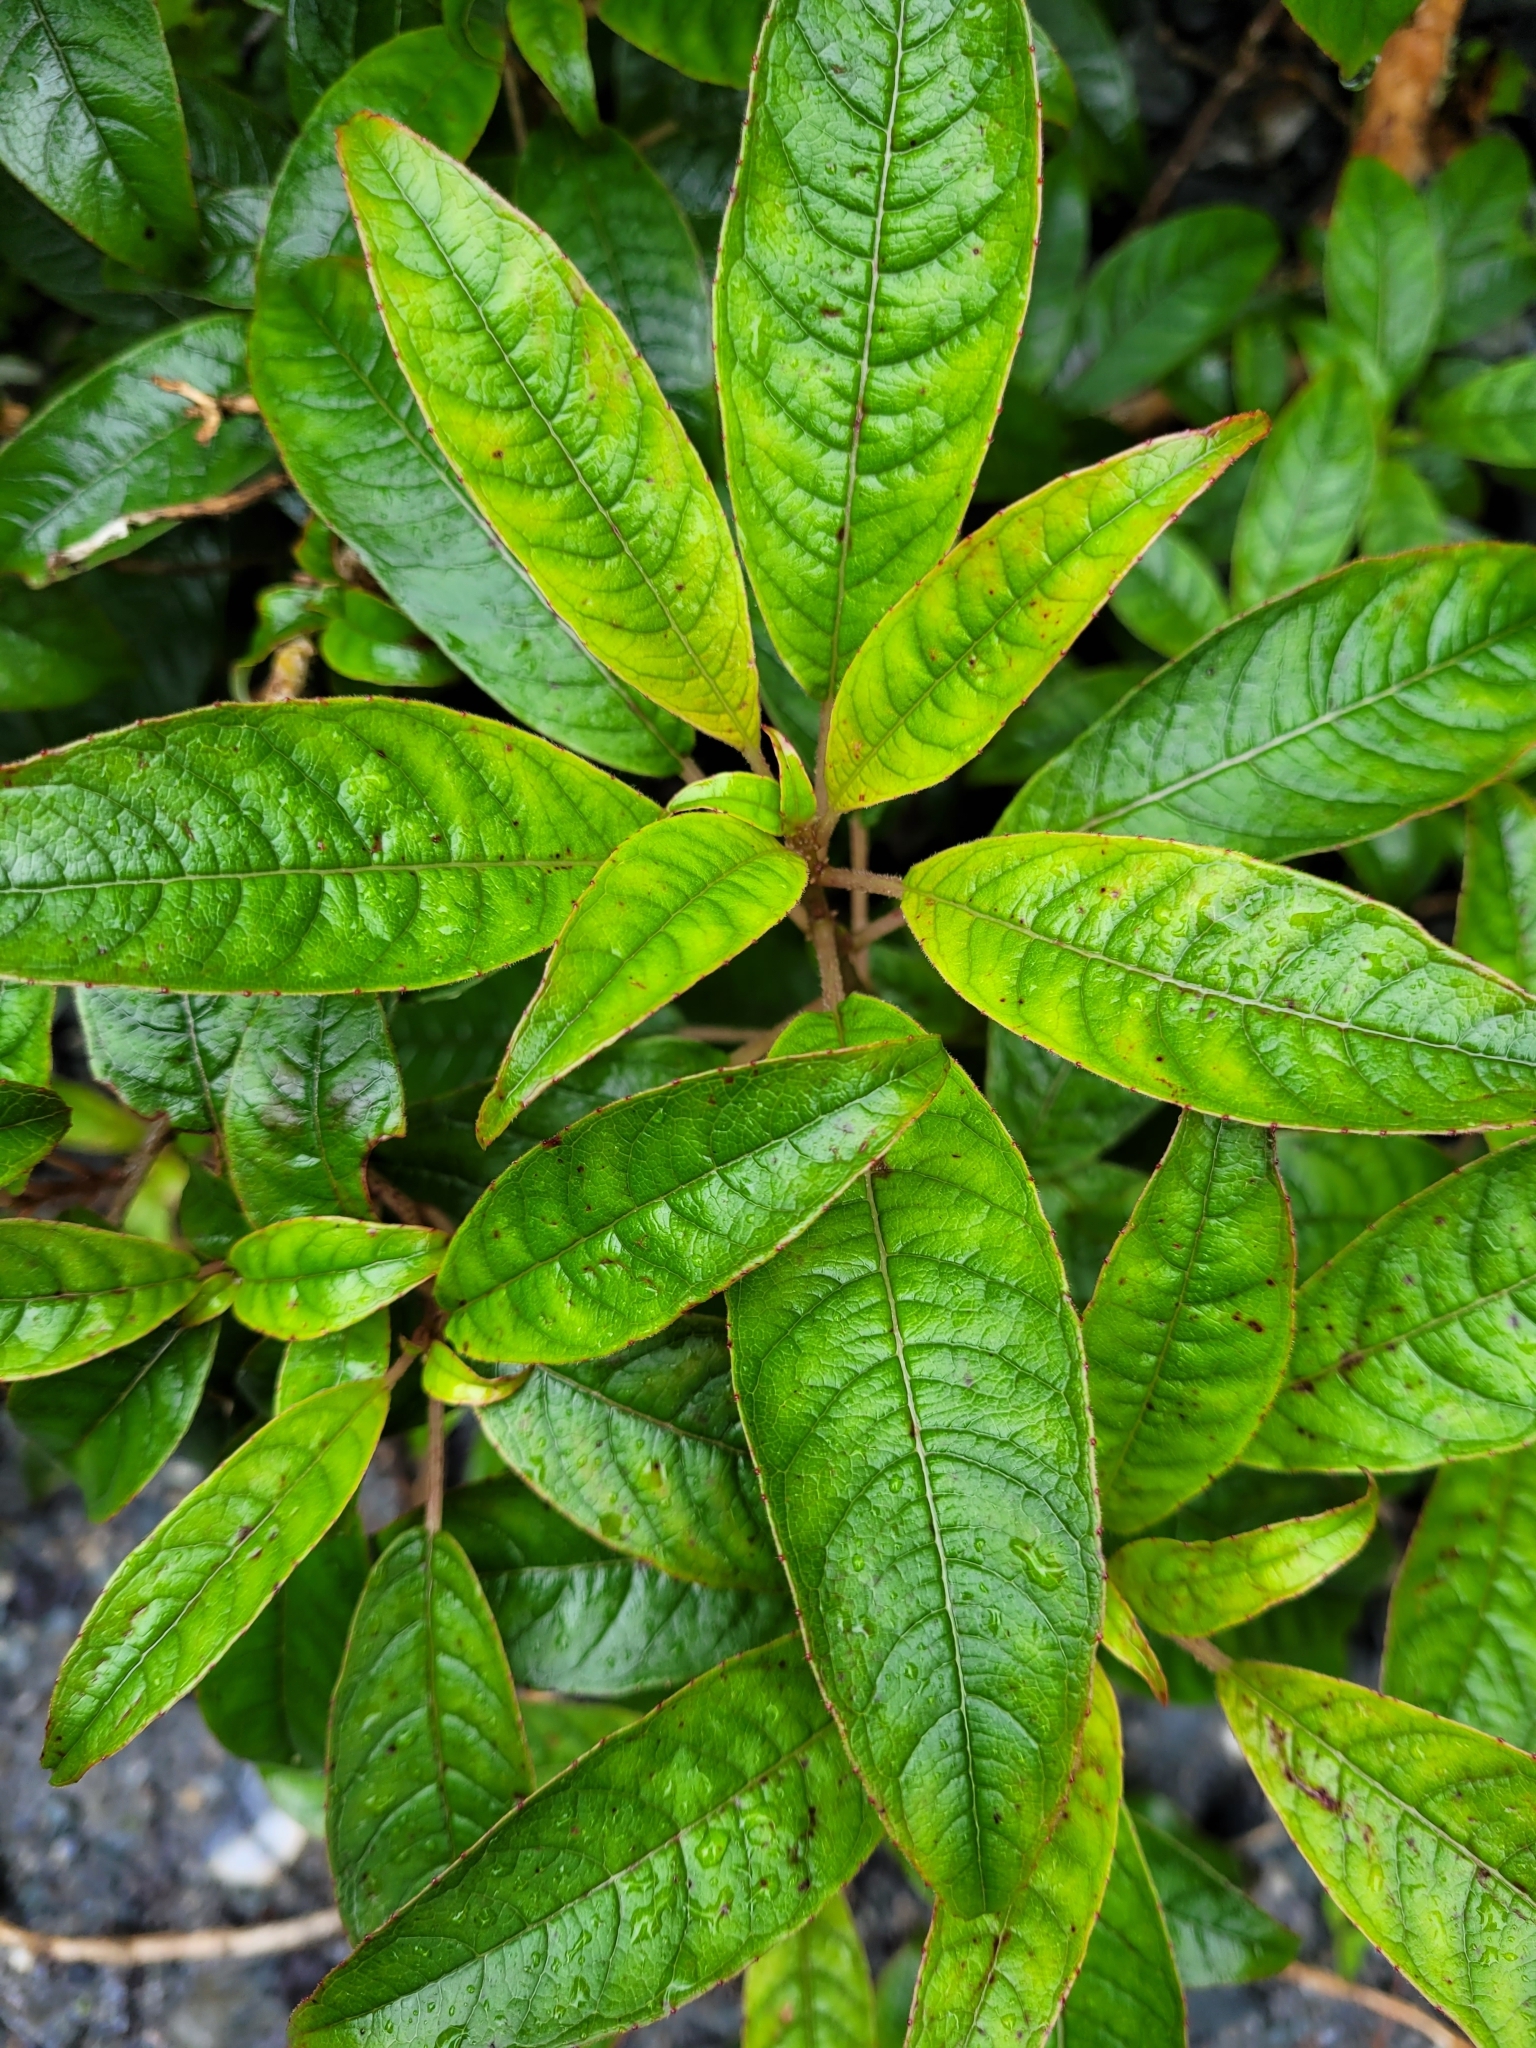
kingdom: Plantae
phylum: Tracheophyta
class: Magnoliopsida
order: Myrtales
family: Onagraceae
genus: Fuchsia
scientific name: Fuchsia excorticata
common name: Tree fuchsia
